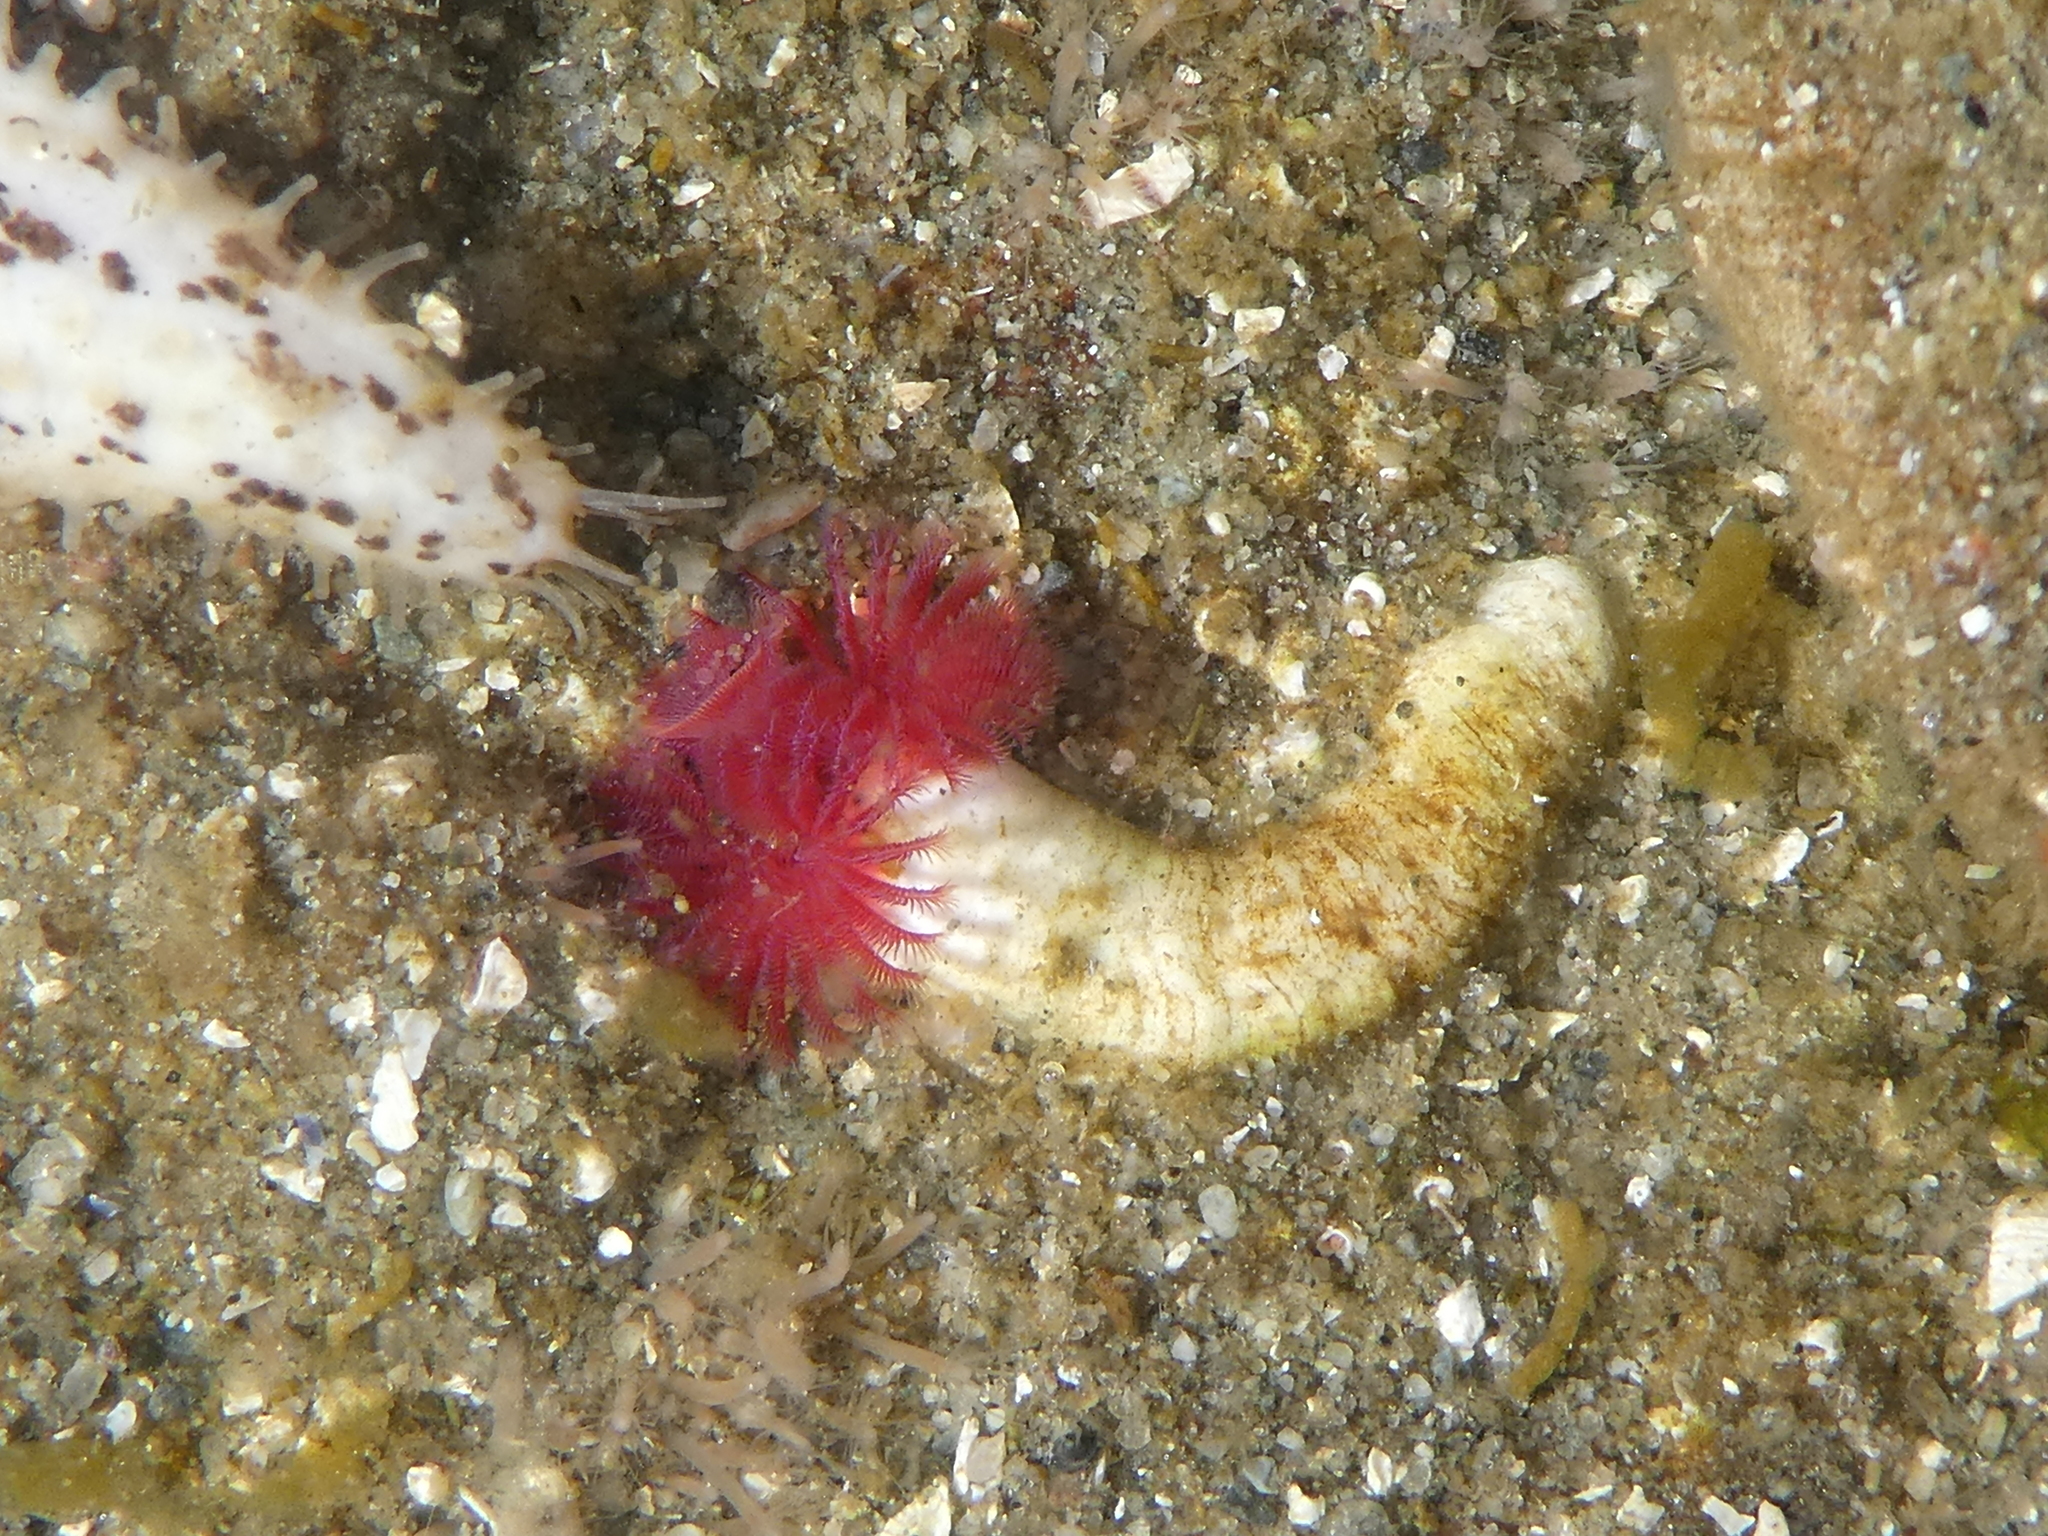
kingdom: Animalia
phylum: Annelida
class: Polychaeta
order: Sabellida
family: Serpulidae
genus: Serpula
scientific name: Serpula columbiana
